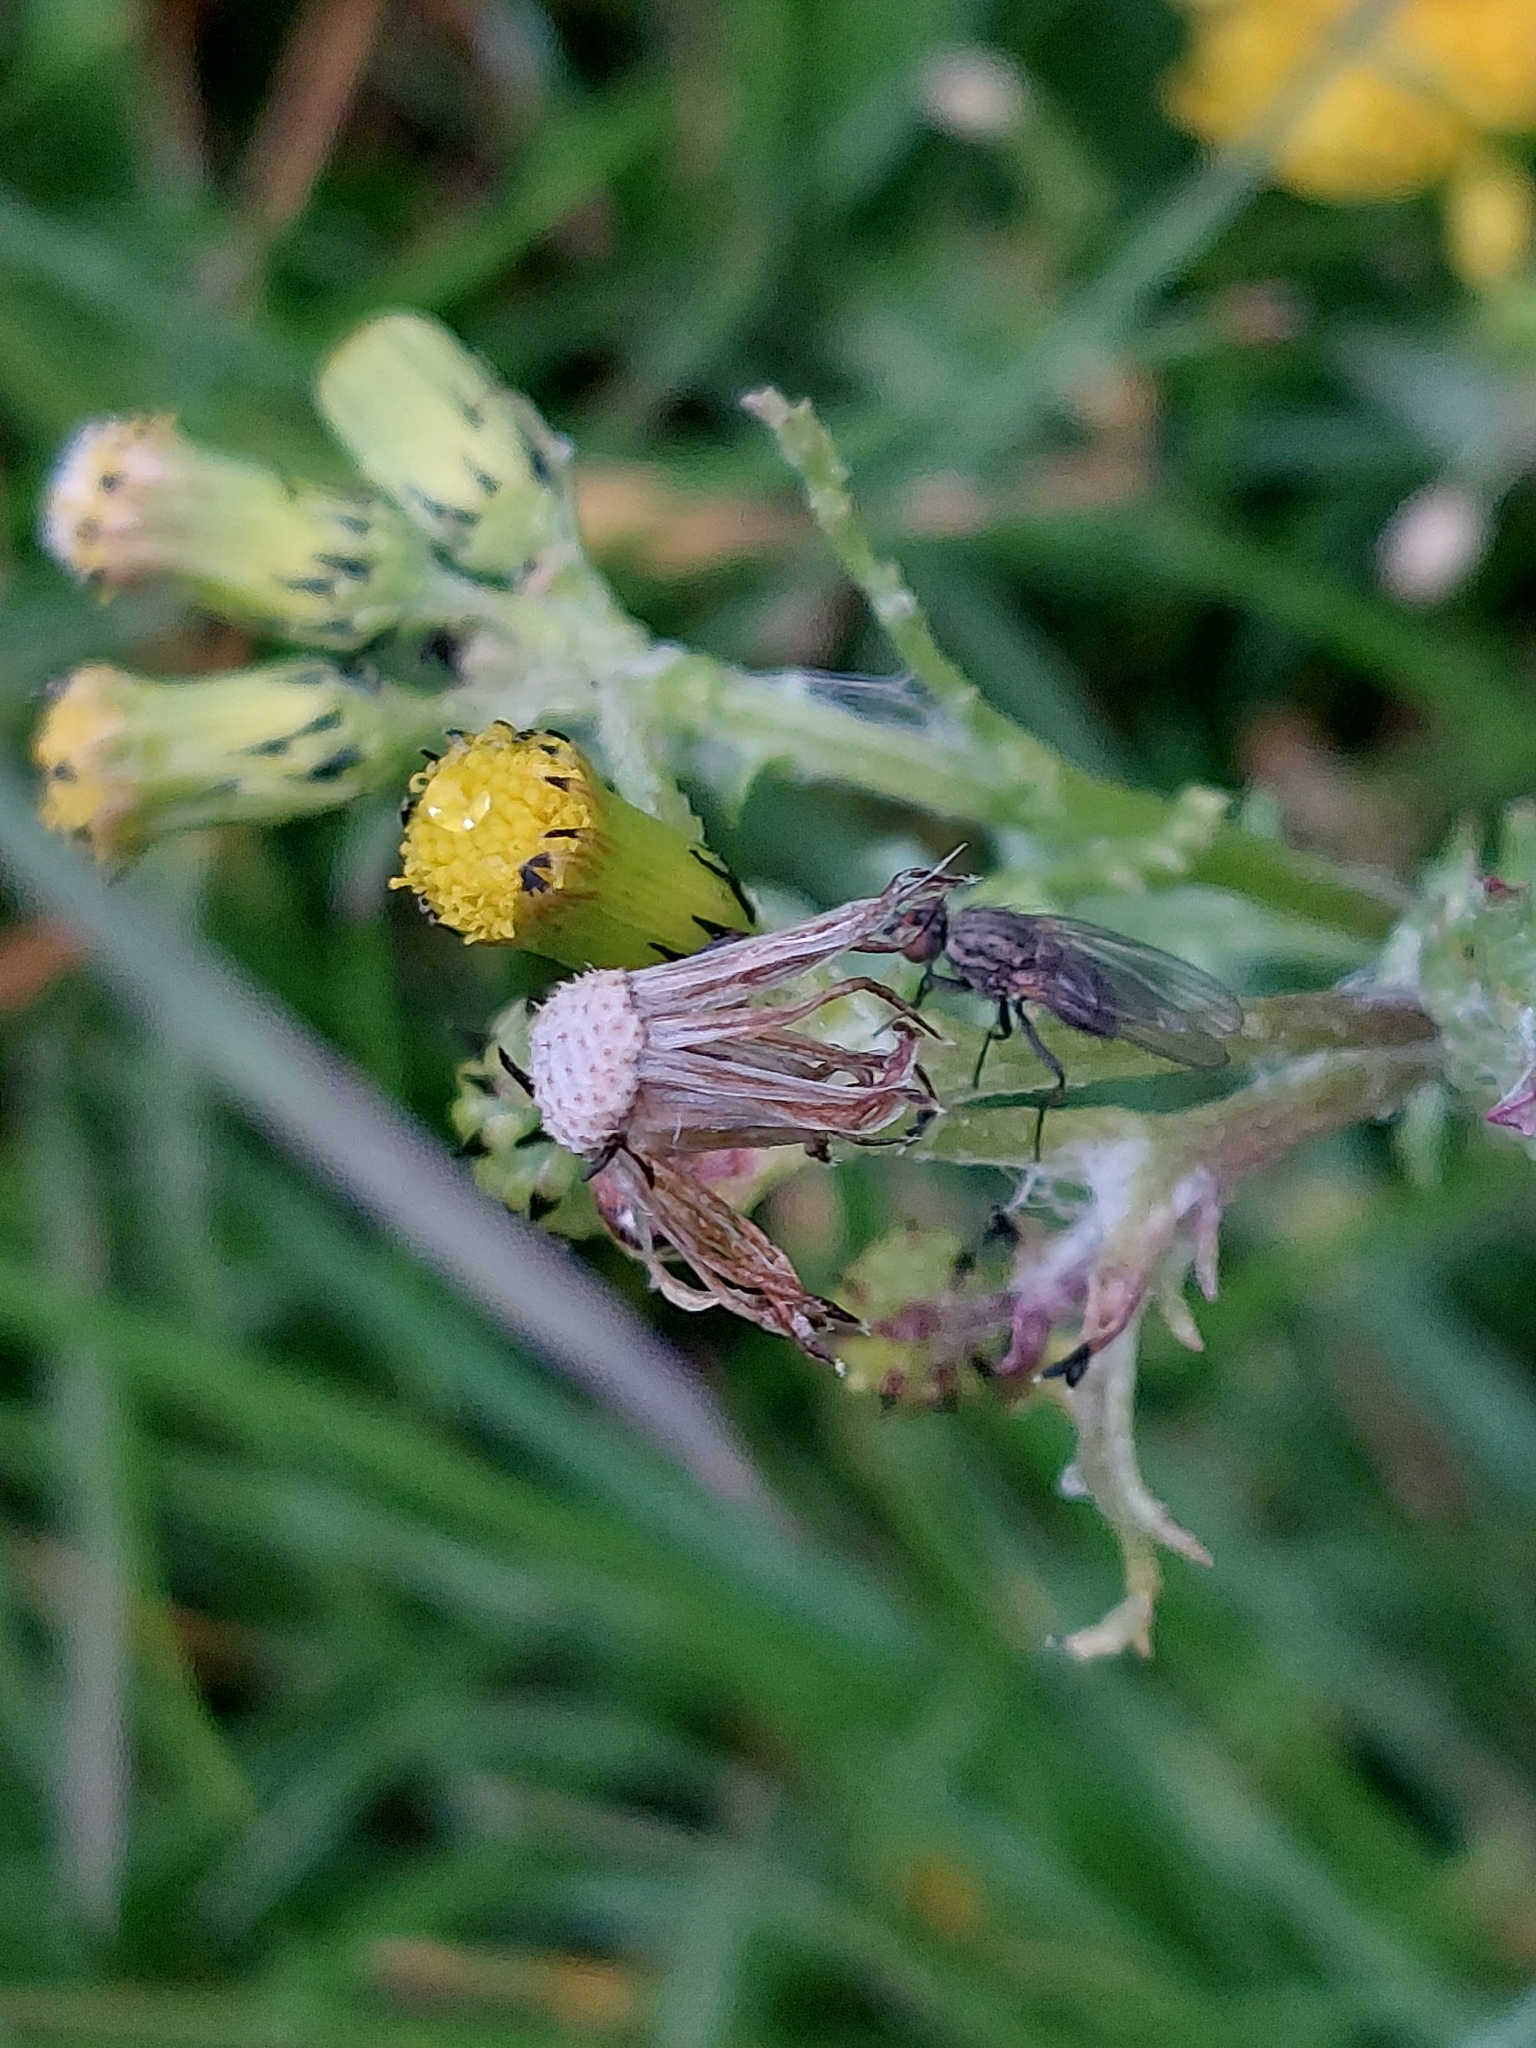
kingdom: Plantae
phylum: Tracheophyta
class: Magnoliopsida
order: Asterales
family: Asteraceae
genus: Senecio
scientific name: Senecio vulgaris
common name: Old-man-in-the-spring
